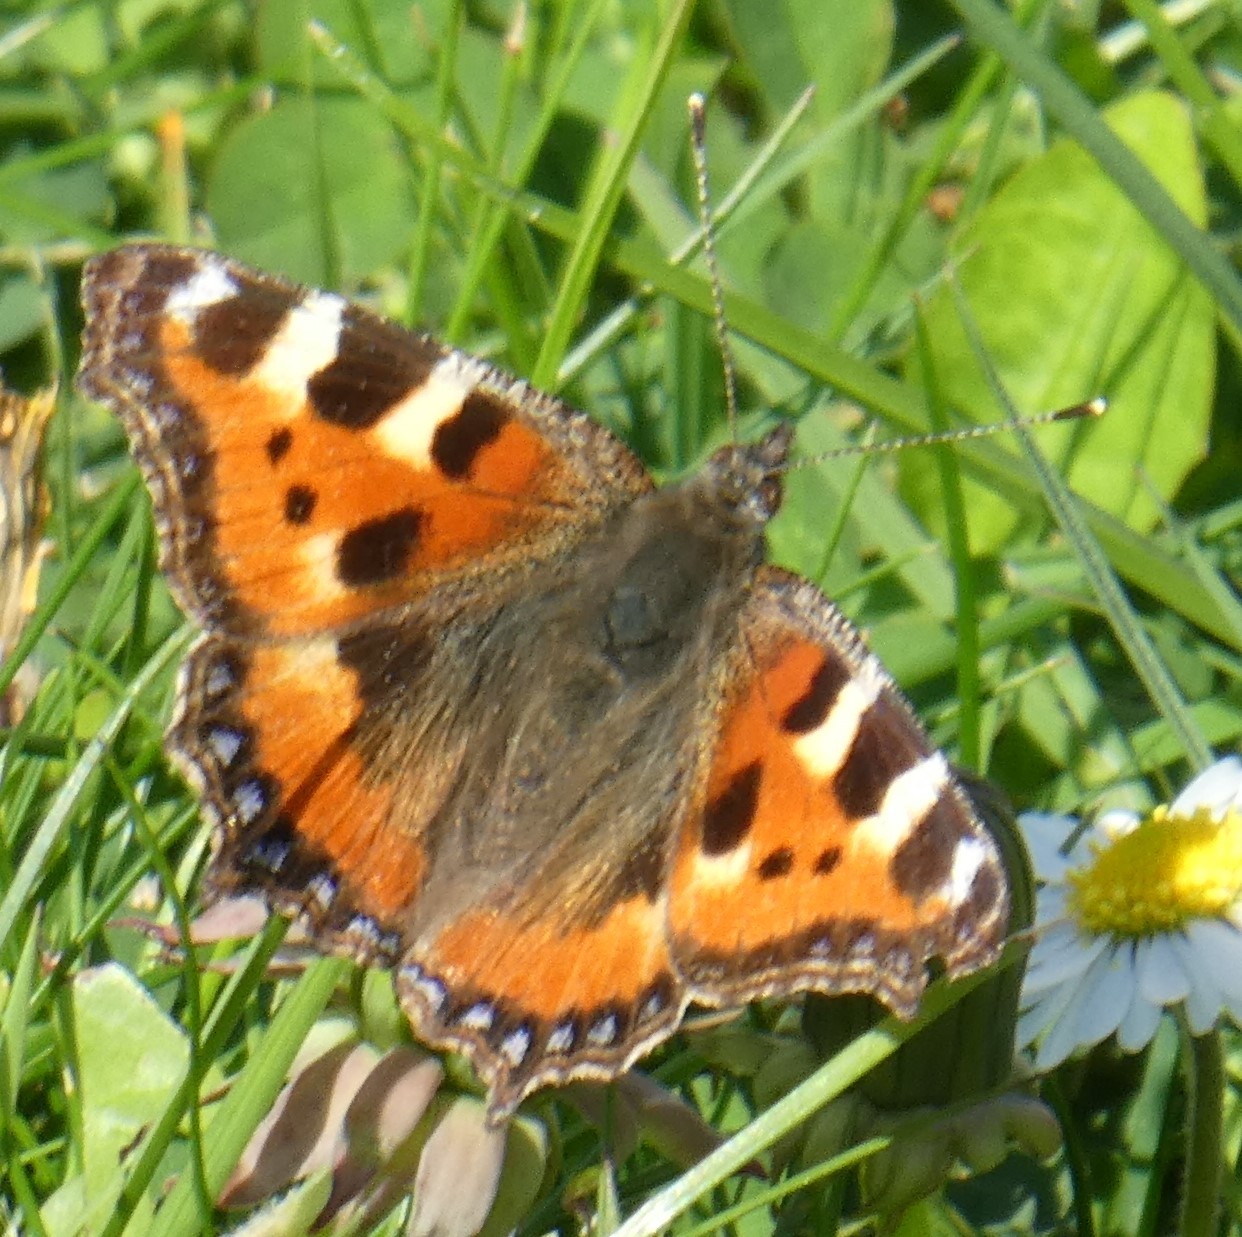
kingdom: Animalia
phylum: Arthropoda
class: Insecta
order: Lepidoptera
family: Nymphalidae
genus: Aglais
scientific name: Aglais urticae
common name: Small tortoiseshell
